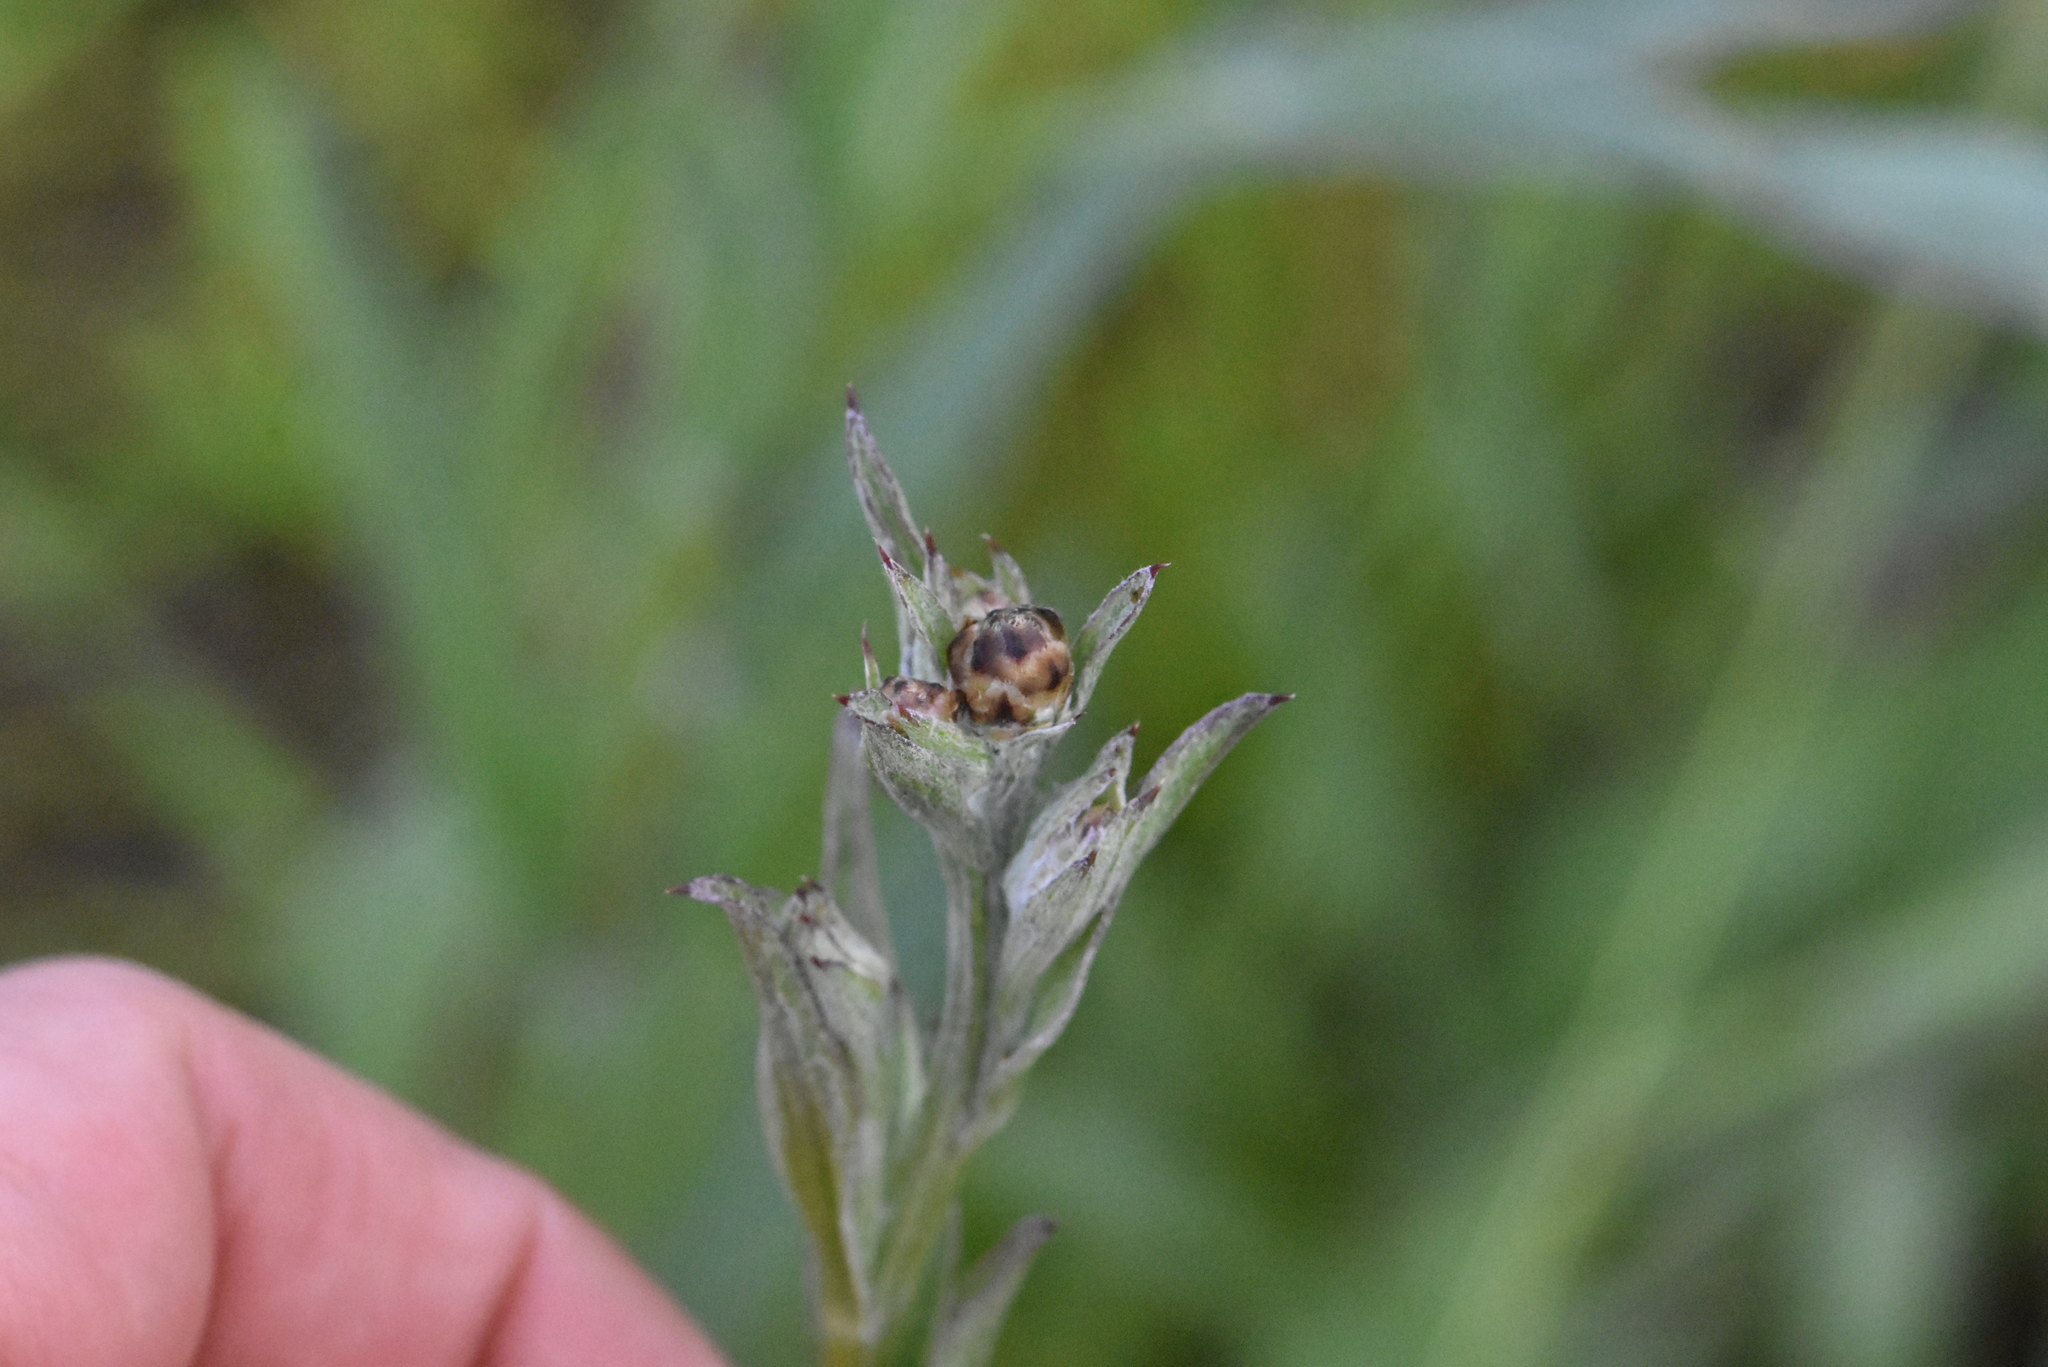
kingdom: Plantae
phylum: Tracheophyta
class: Magnoliopsida
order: Asterales
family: Asteraceae
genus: Centaurea
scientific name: Centaurea jacea
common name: Brown knapweed
